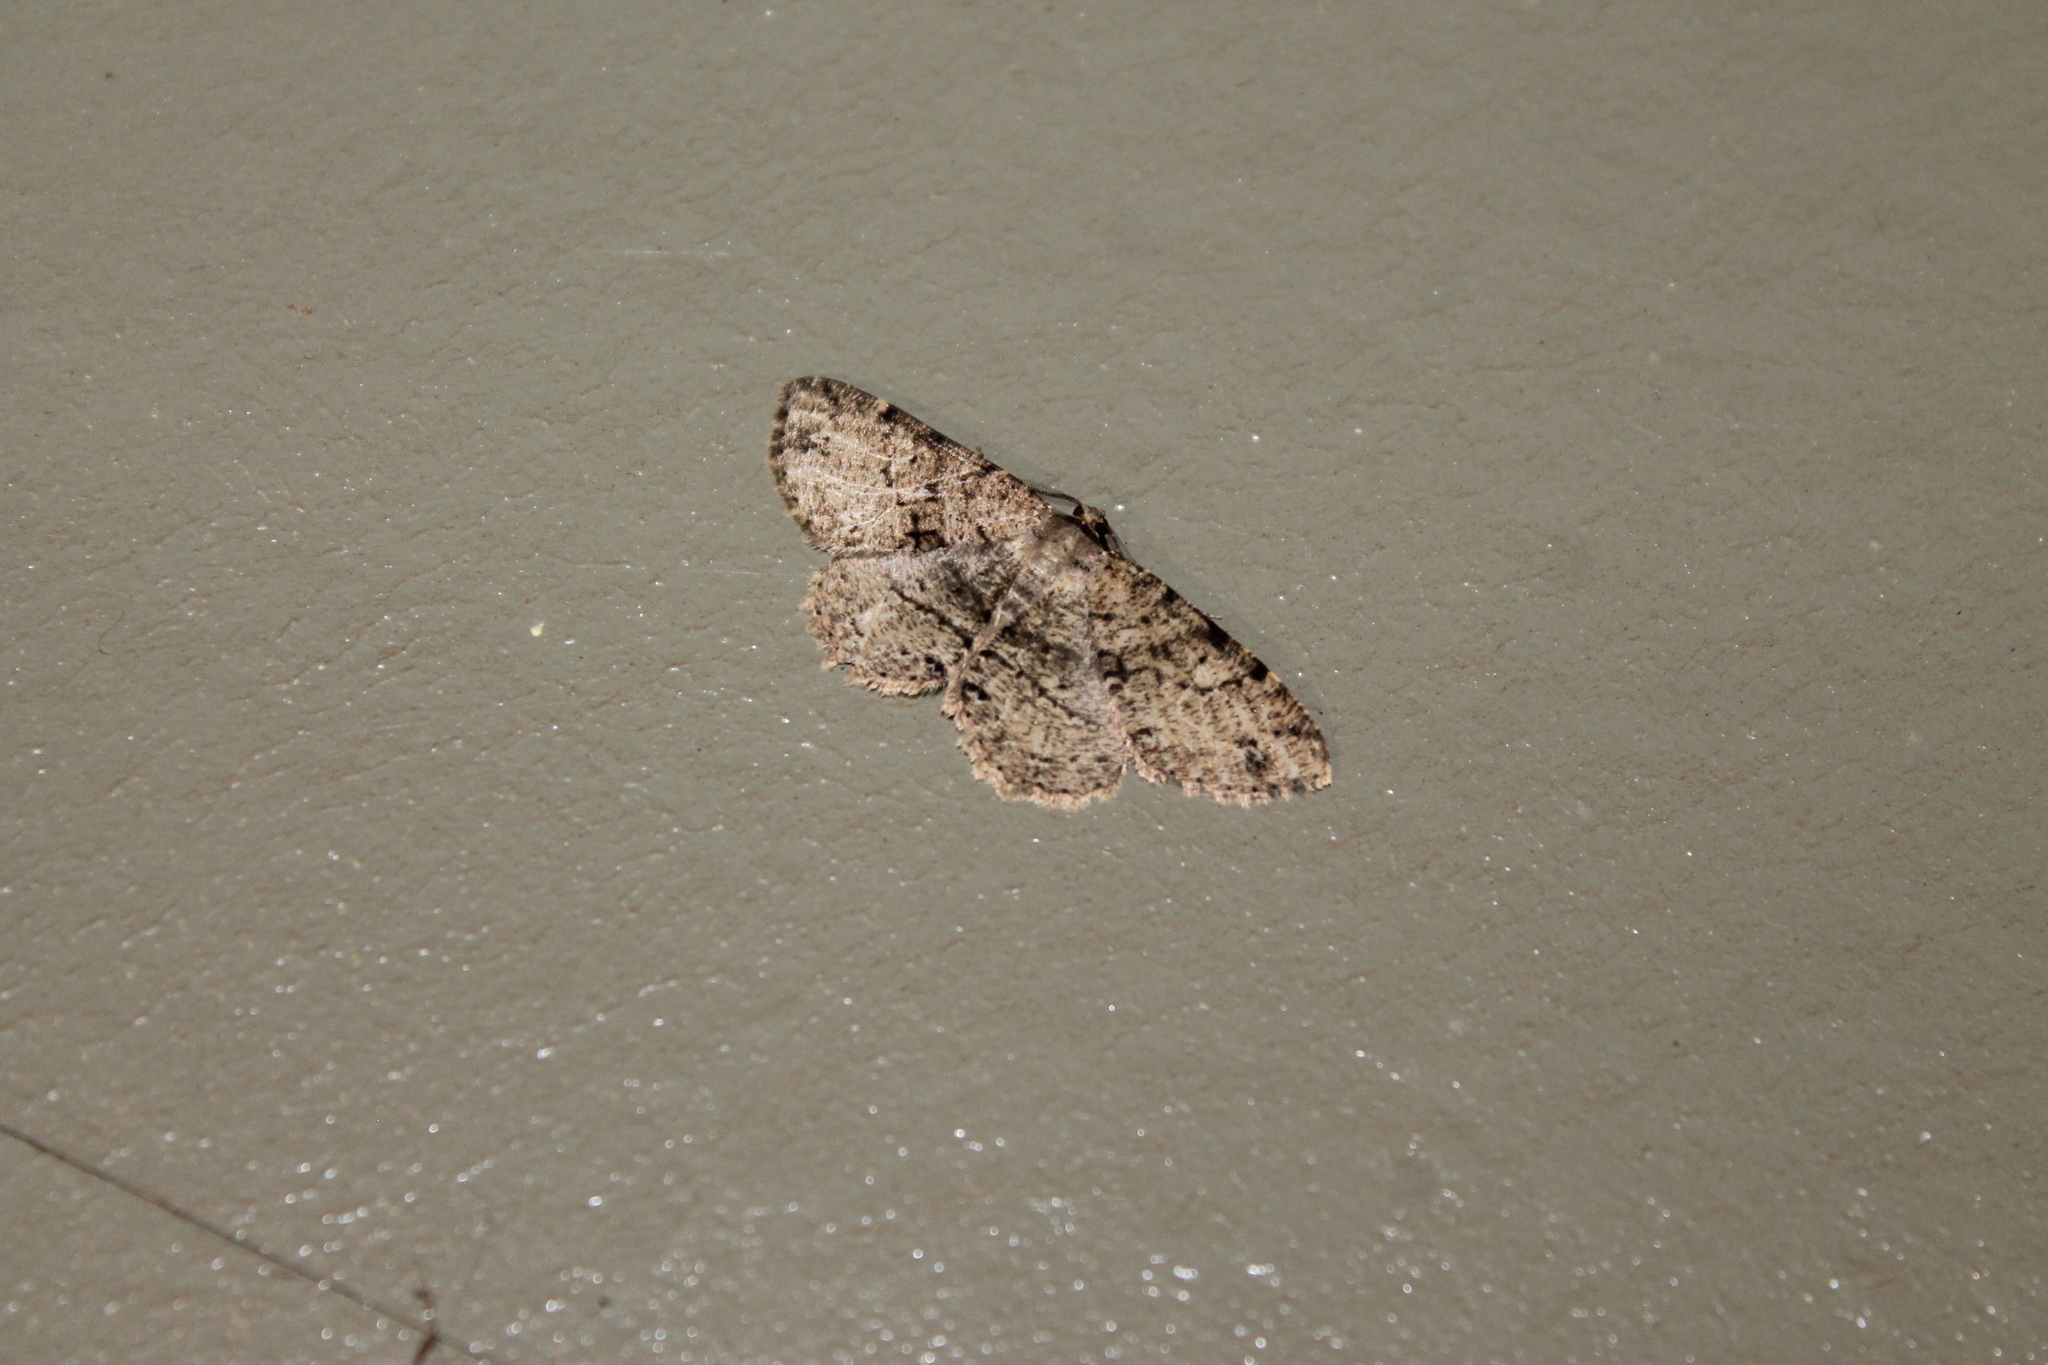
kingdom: Animalia
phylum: Arthropoda
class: Insecta
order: Lepidoptera
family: Geometridae
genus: Melanolophia
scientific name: Melanolophia canadaria
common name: Canadian melanolophia
